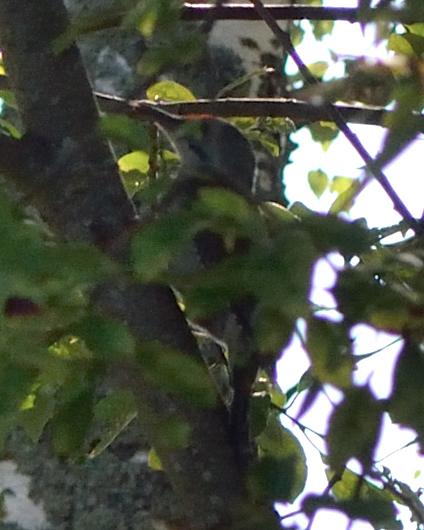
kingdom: Animalia
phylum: Chordata
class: Aves
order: Piciformes
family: Picidae
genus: Picus
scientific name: Picus canus
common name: Grey-headed woodpecker
